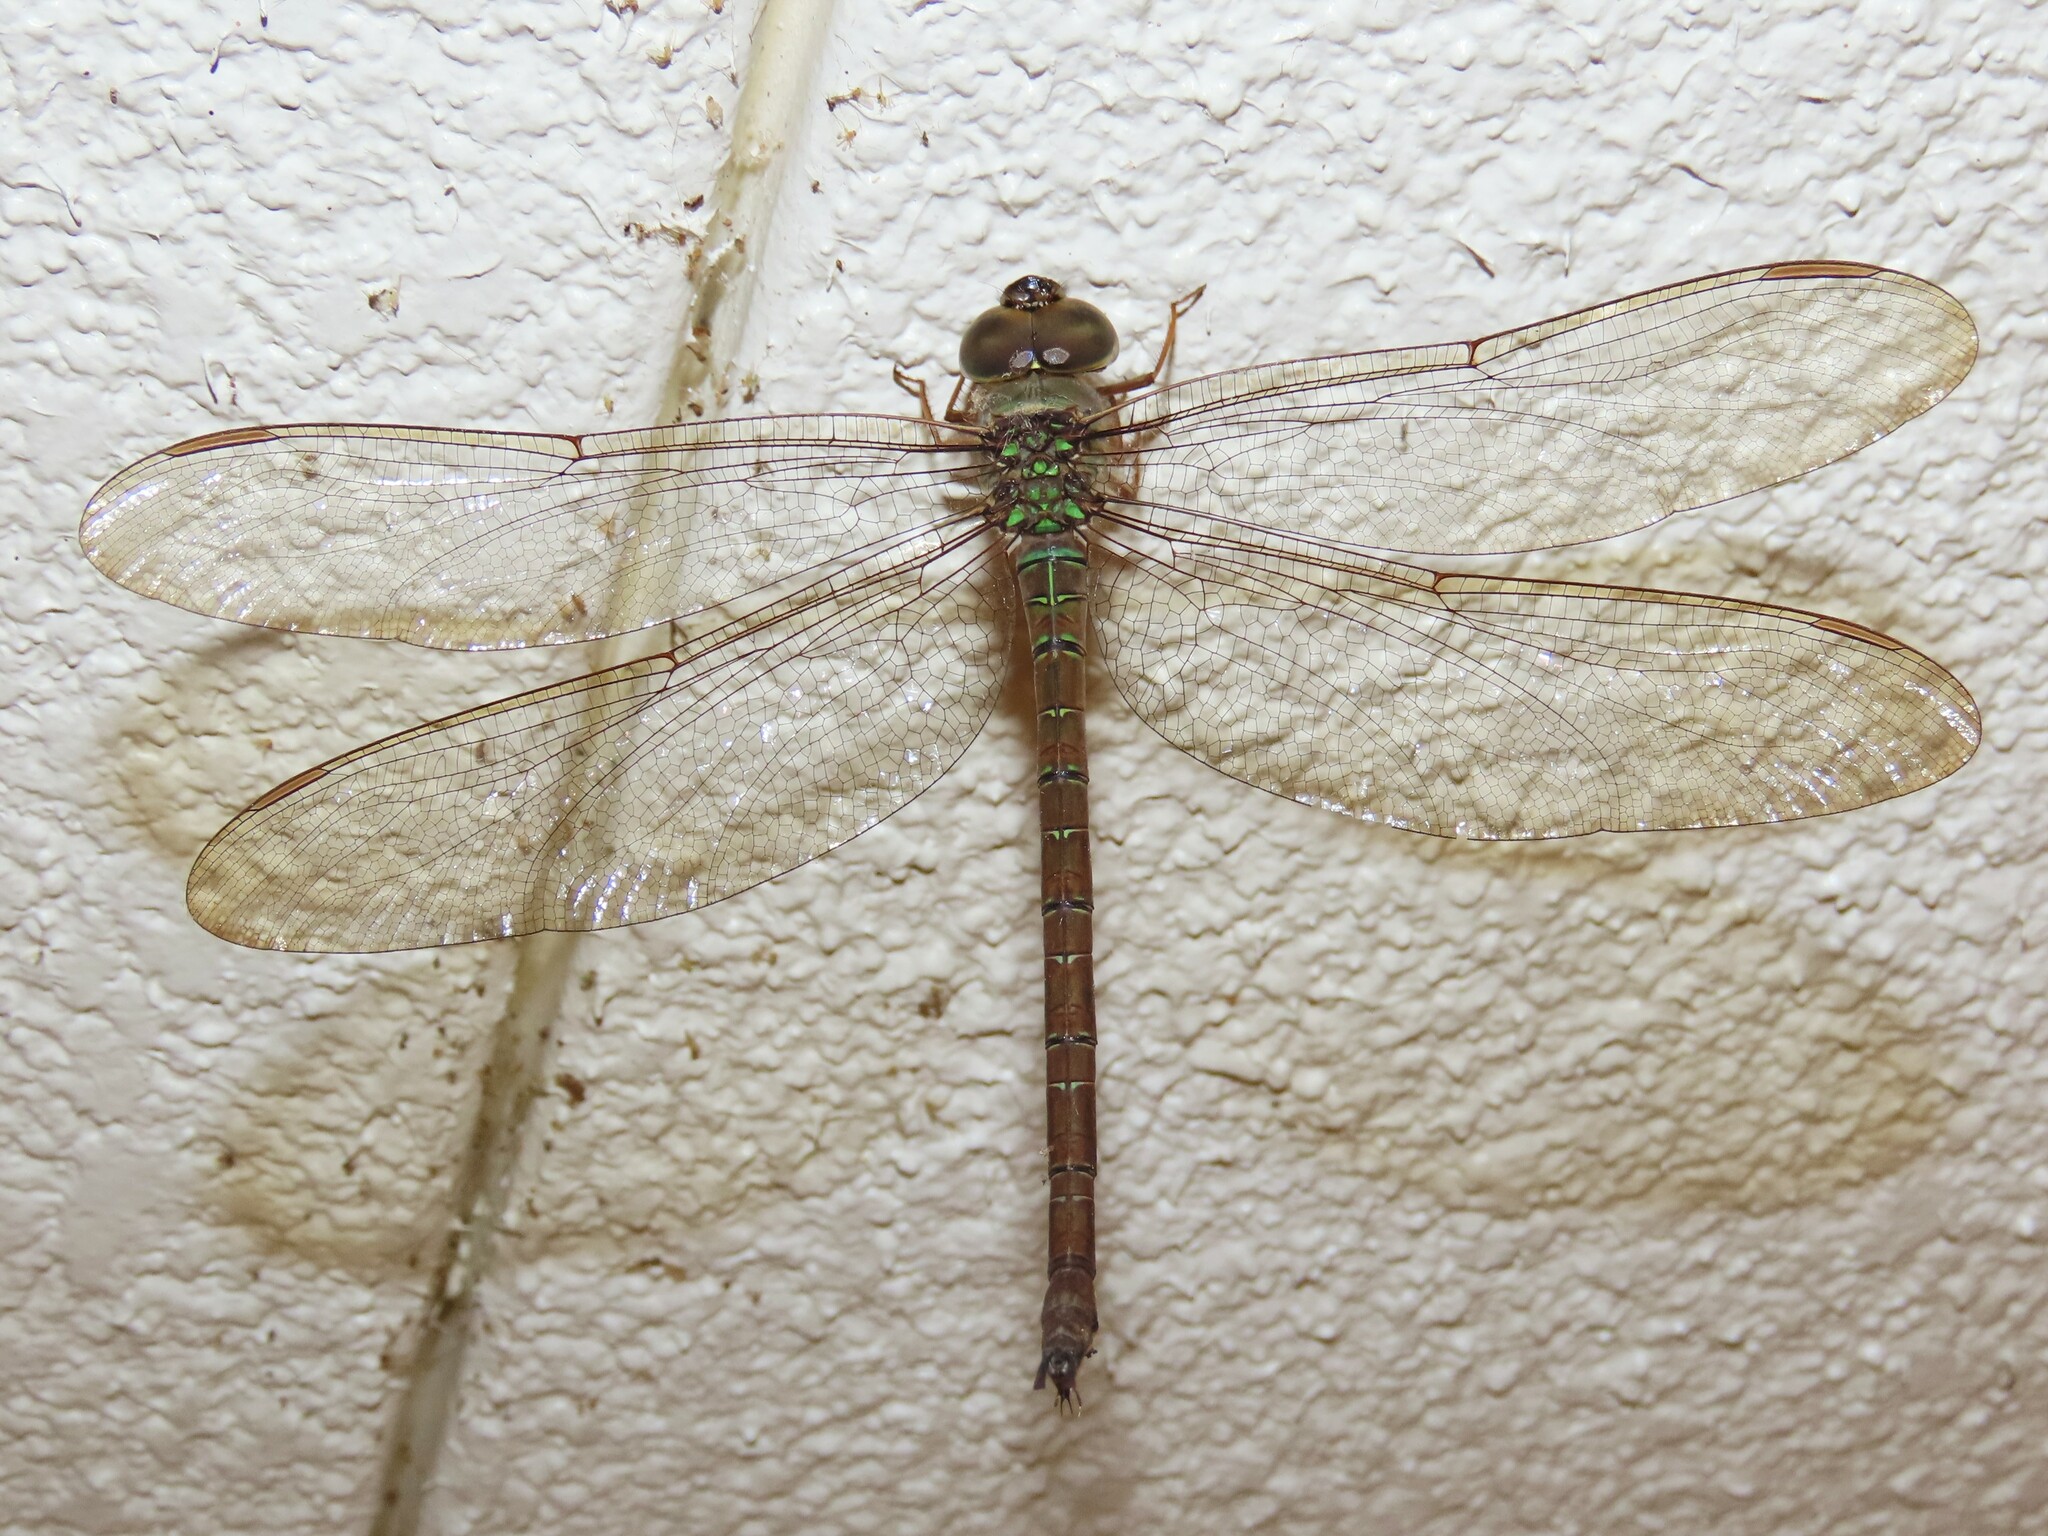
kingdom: Animalia
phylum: Arthropoda
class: Insecta
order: Odonata
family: Aeshnidae
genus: Gynacantha
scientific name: Gynacantha nervosa
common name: Twilight darner
